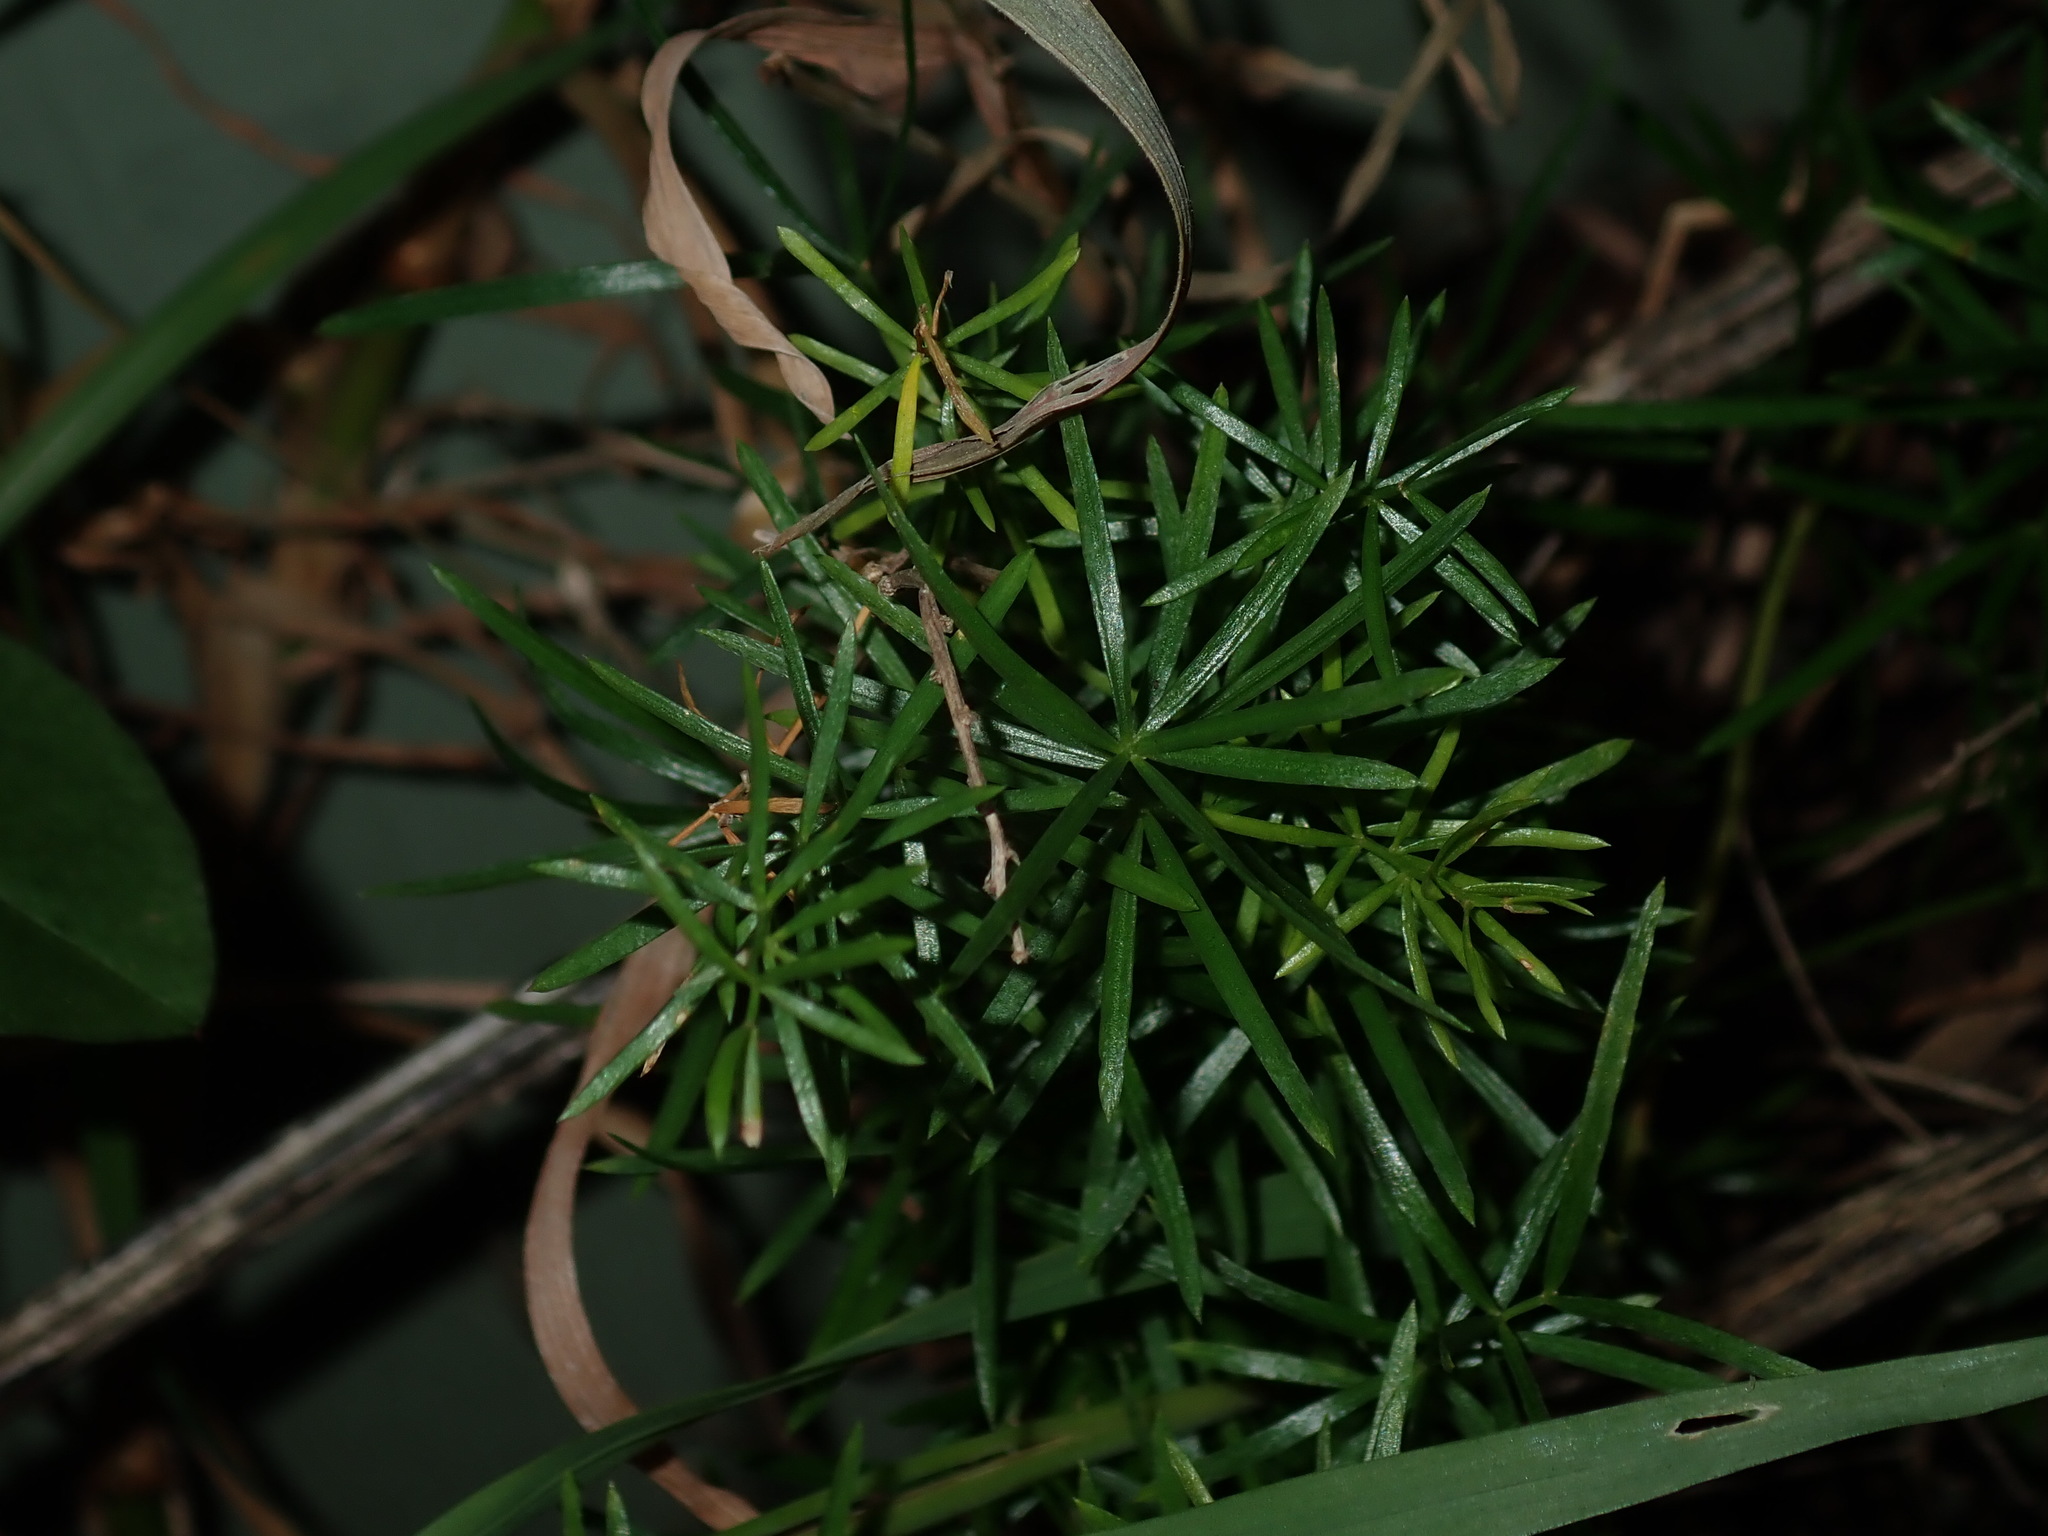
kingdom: Plantae
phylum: Tracheophyta
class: Liliopsida
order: Asparagales
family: Asparagaceae
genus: Asparagus
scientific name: Asparagus aethiopicus
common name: Sprenger's asparagus fern
